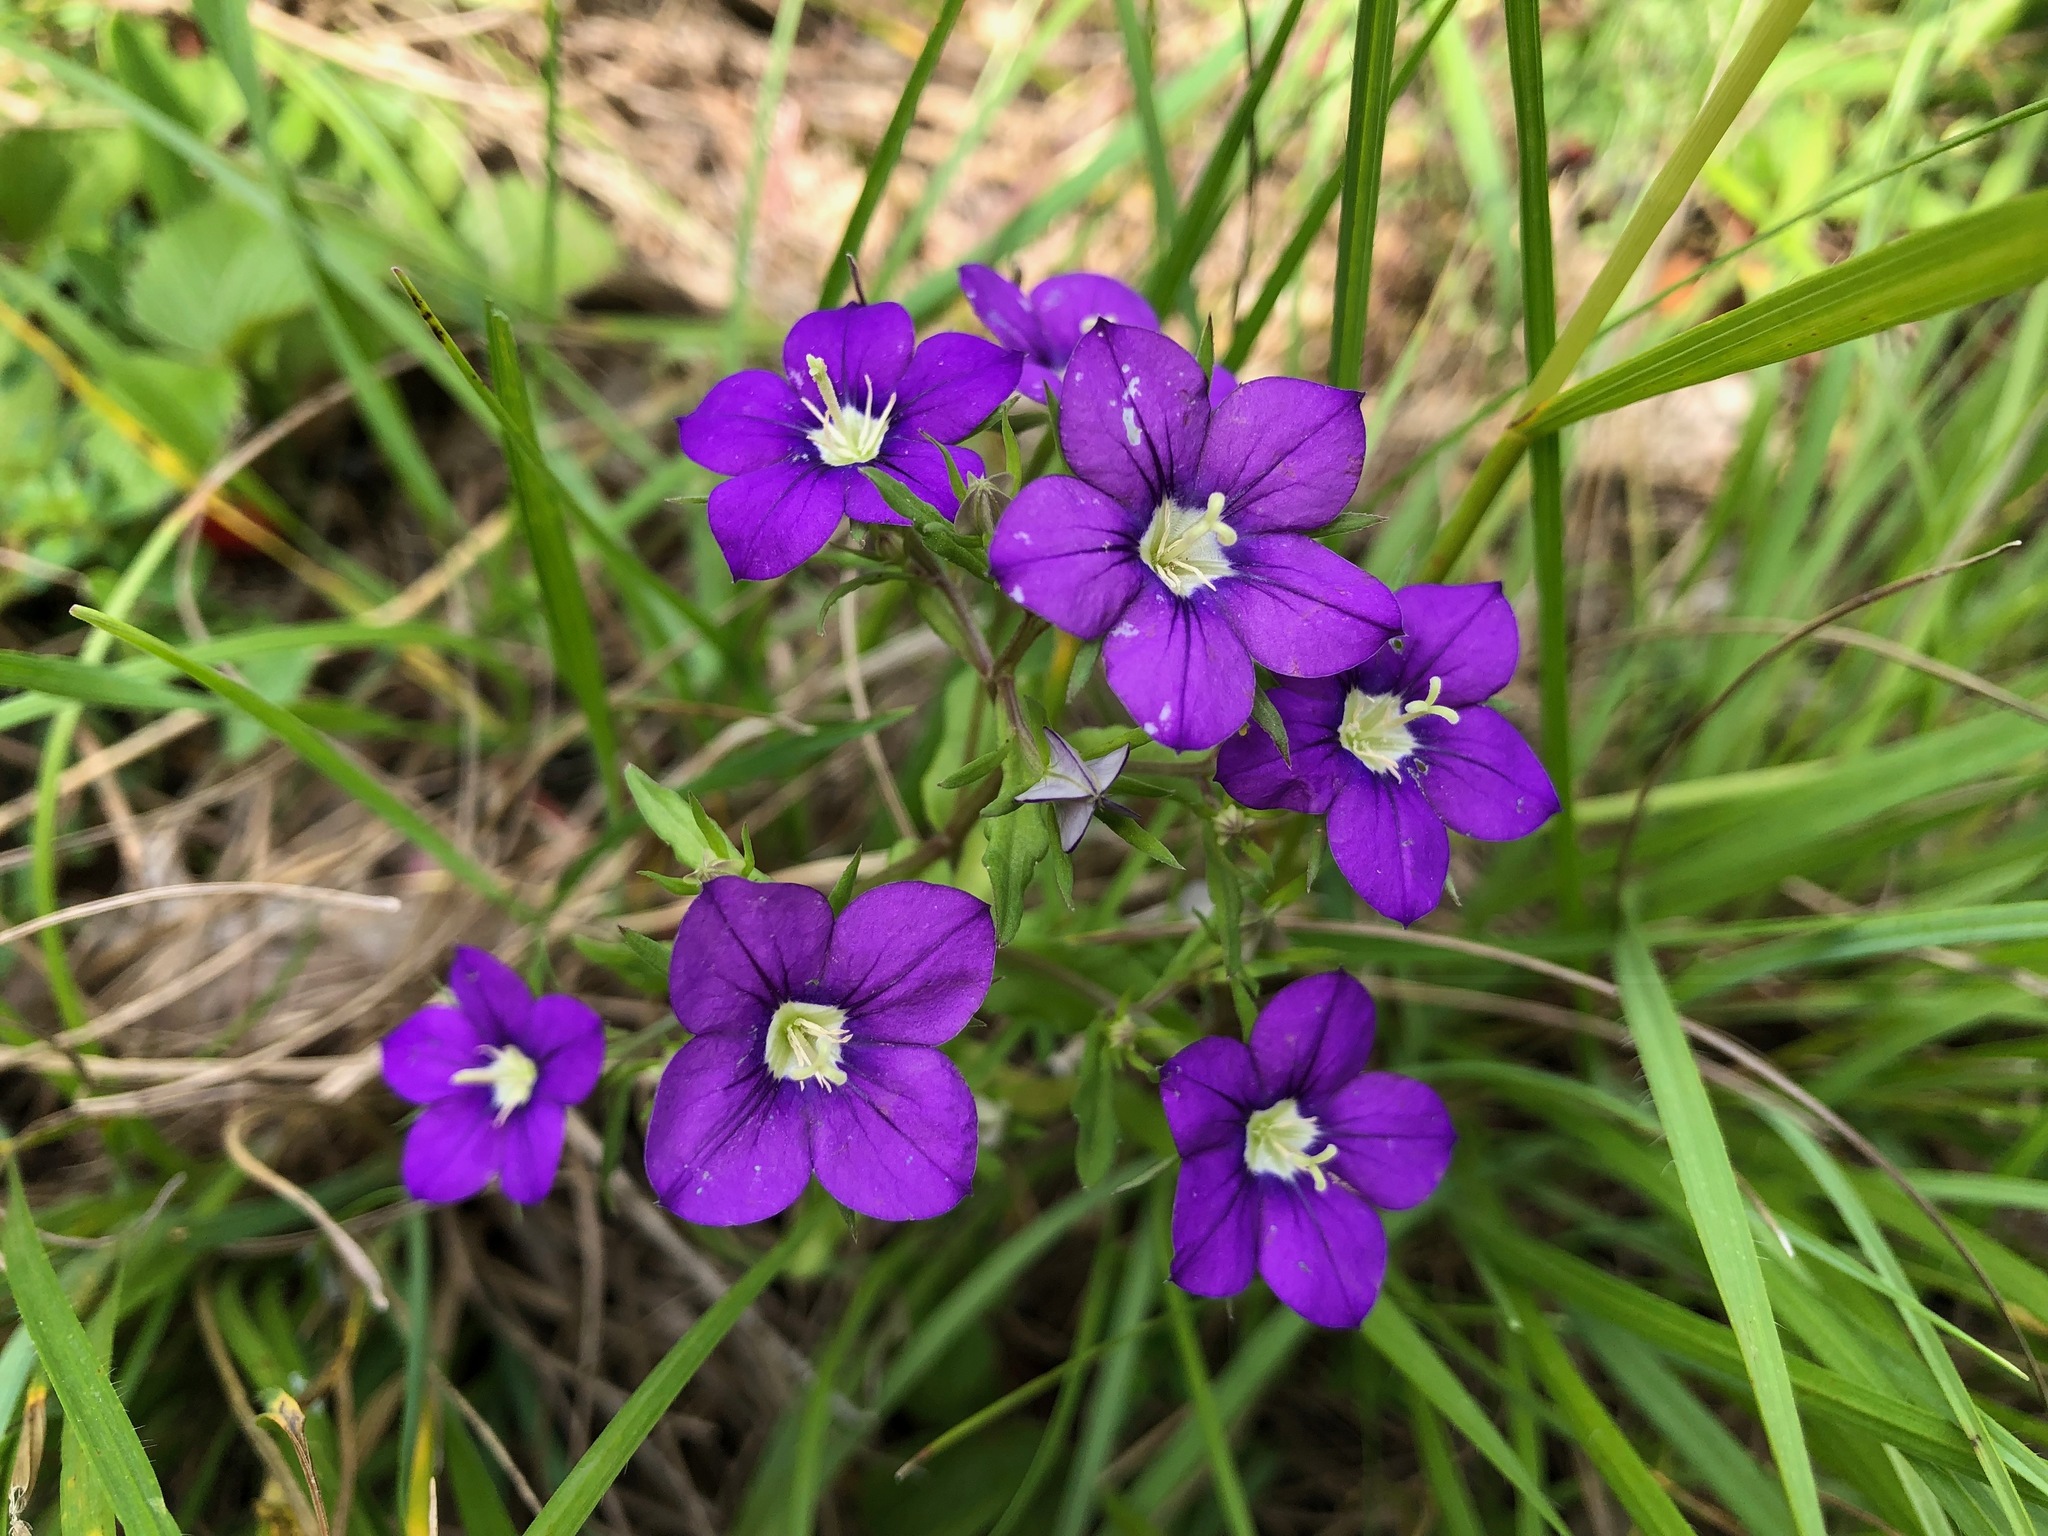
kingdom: Plantae
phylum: Tracheophyta
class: Magnoliopsida
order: Asterales
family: Campanulaceae
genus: Legousia
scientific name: Legousia speculum-veneris
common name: Large venus's-looking-glass
